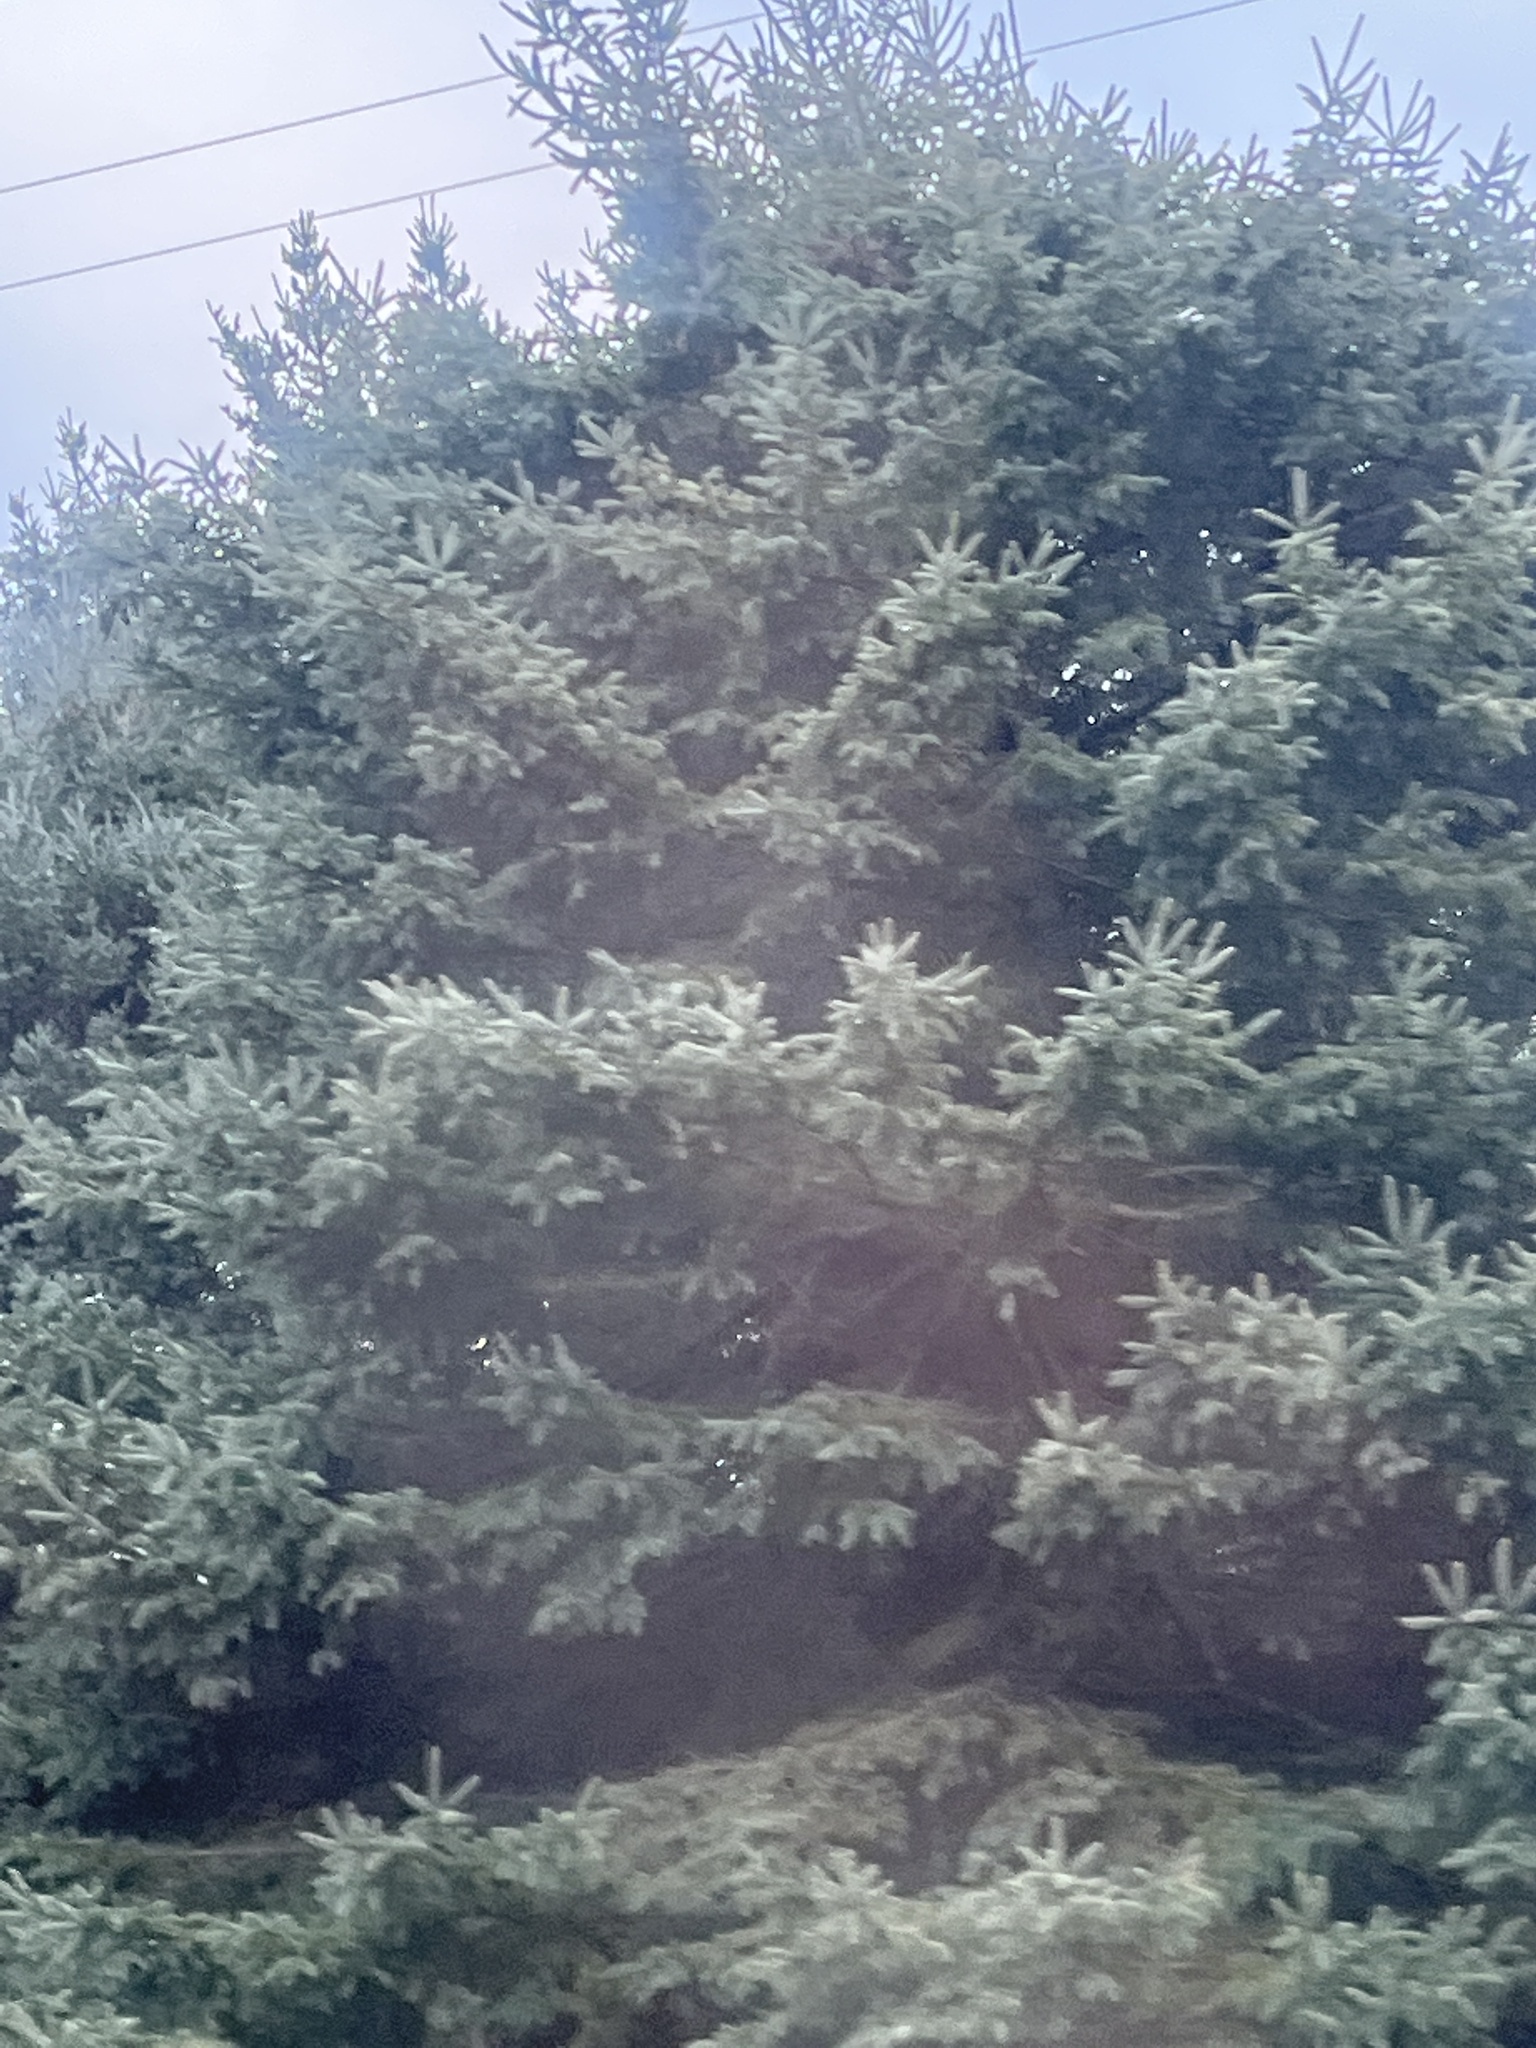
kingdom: Plantae
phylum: Tracheophyta
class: Pinopsida
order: Pinales
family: Pinaceae
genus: Picea
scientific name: Picea pungens
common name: Colorado spruce
